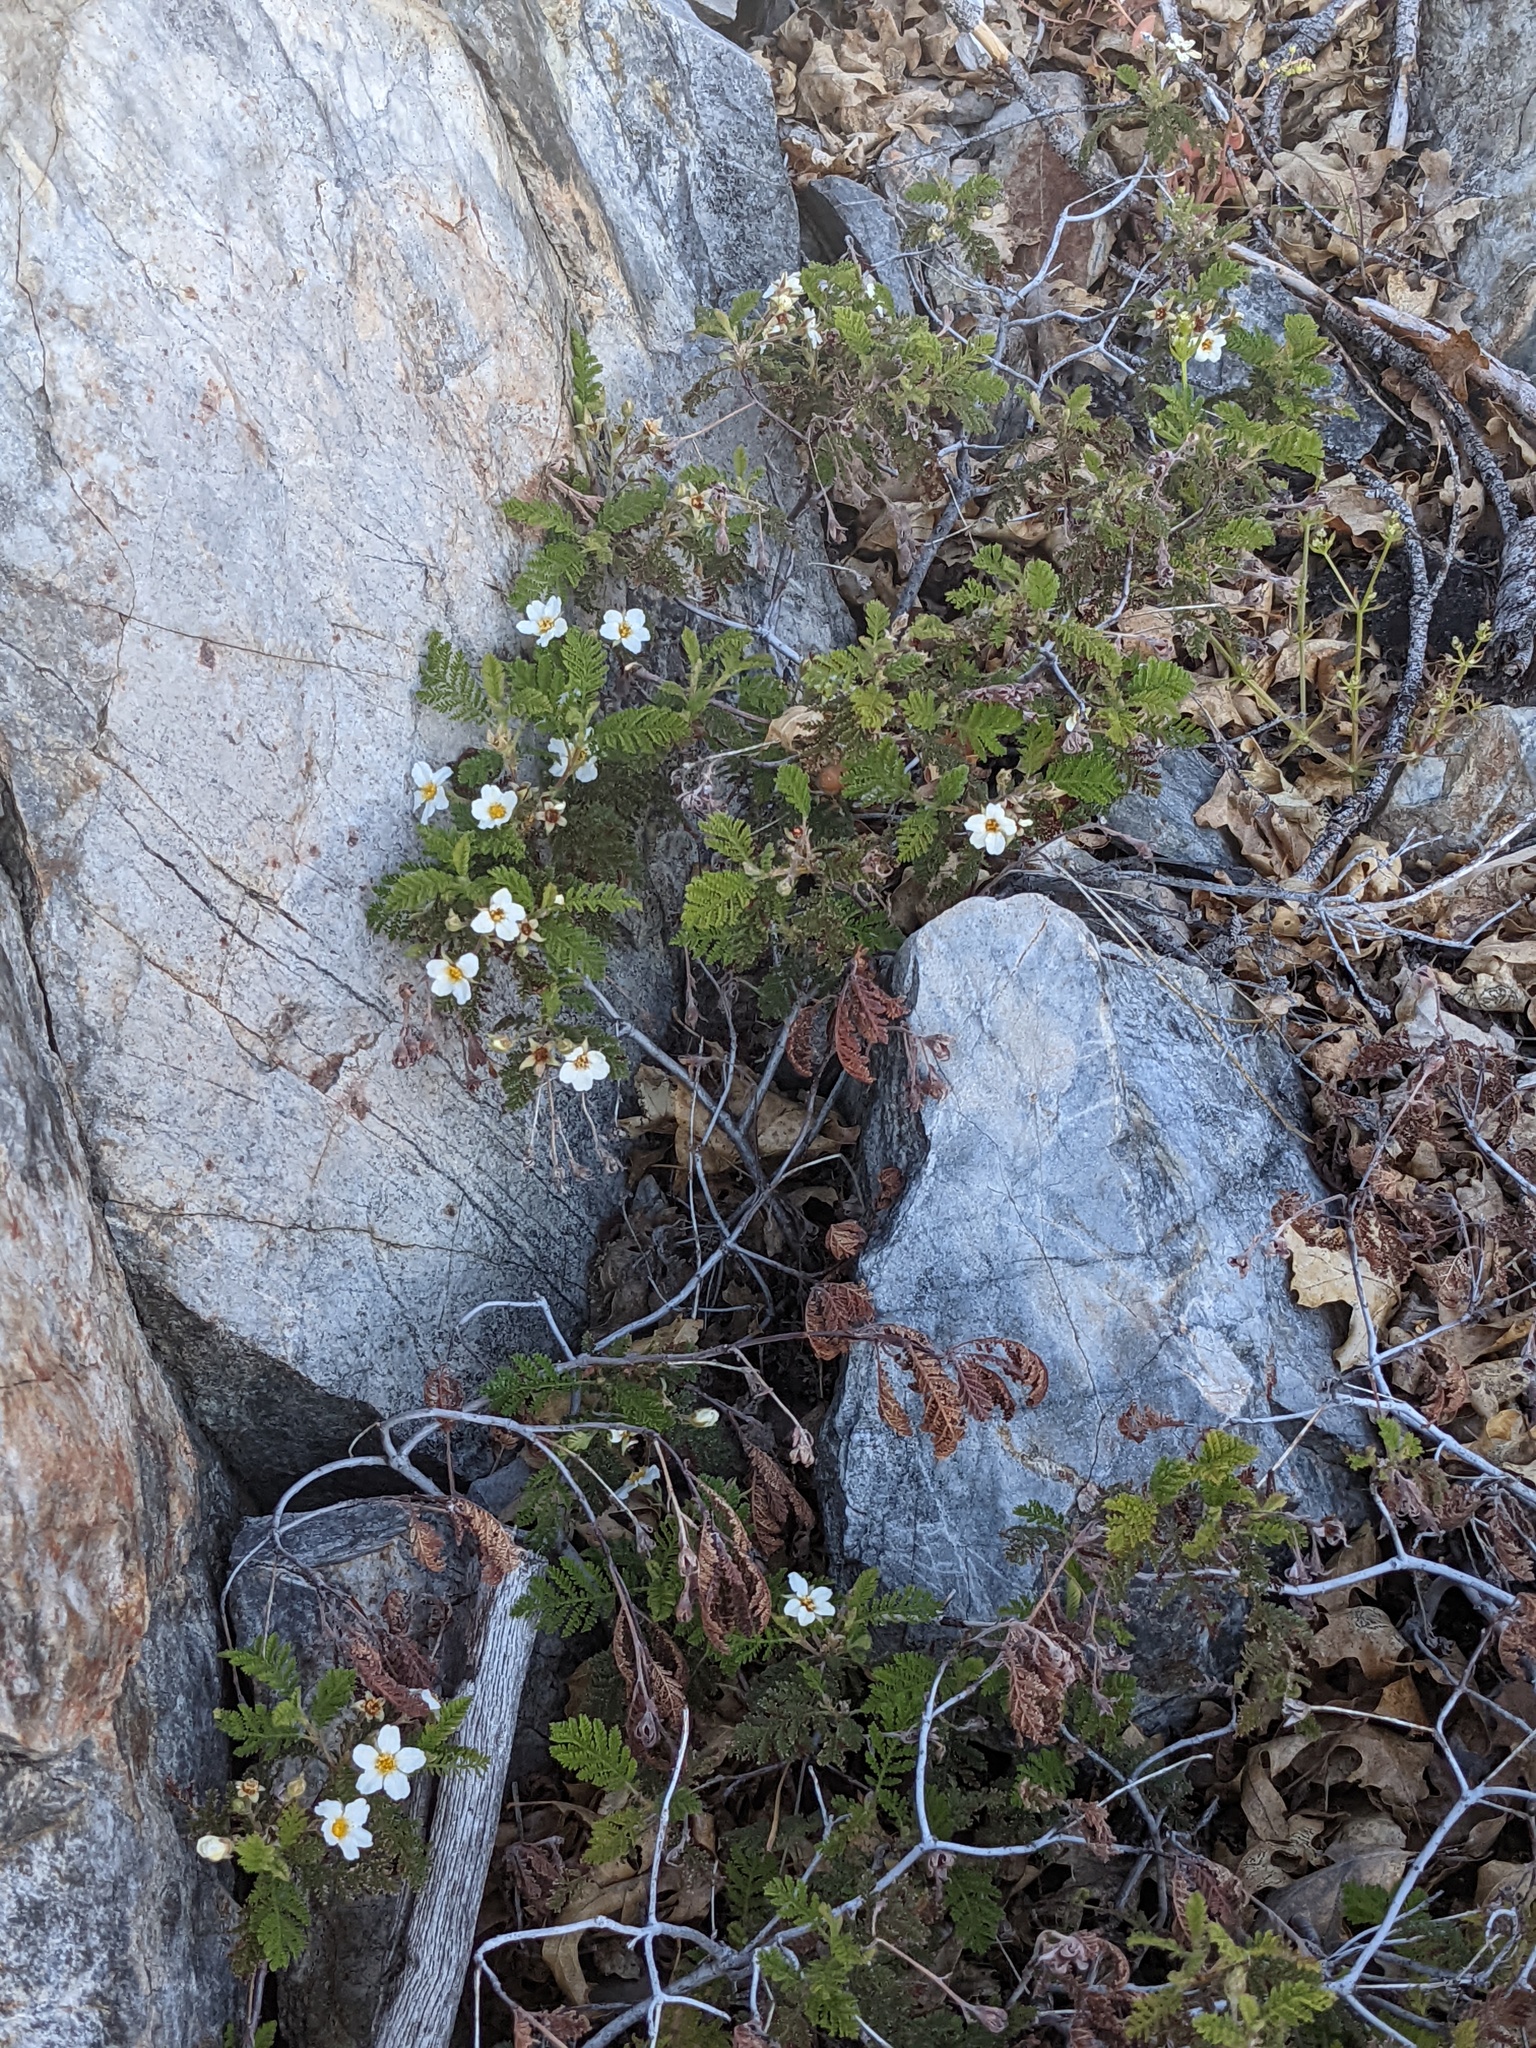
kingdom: Plantae
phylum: Tracheophyta
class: Magnoliopsida
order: Rosales
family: Rosaceae
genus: Chamaebatia
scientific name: Chamaebatia foliolosa
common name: Mountain misery
